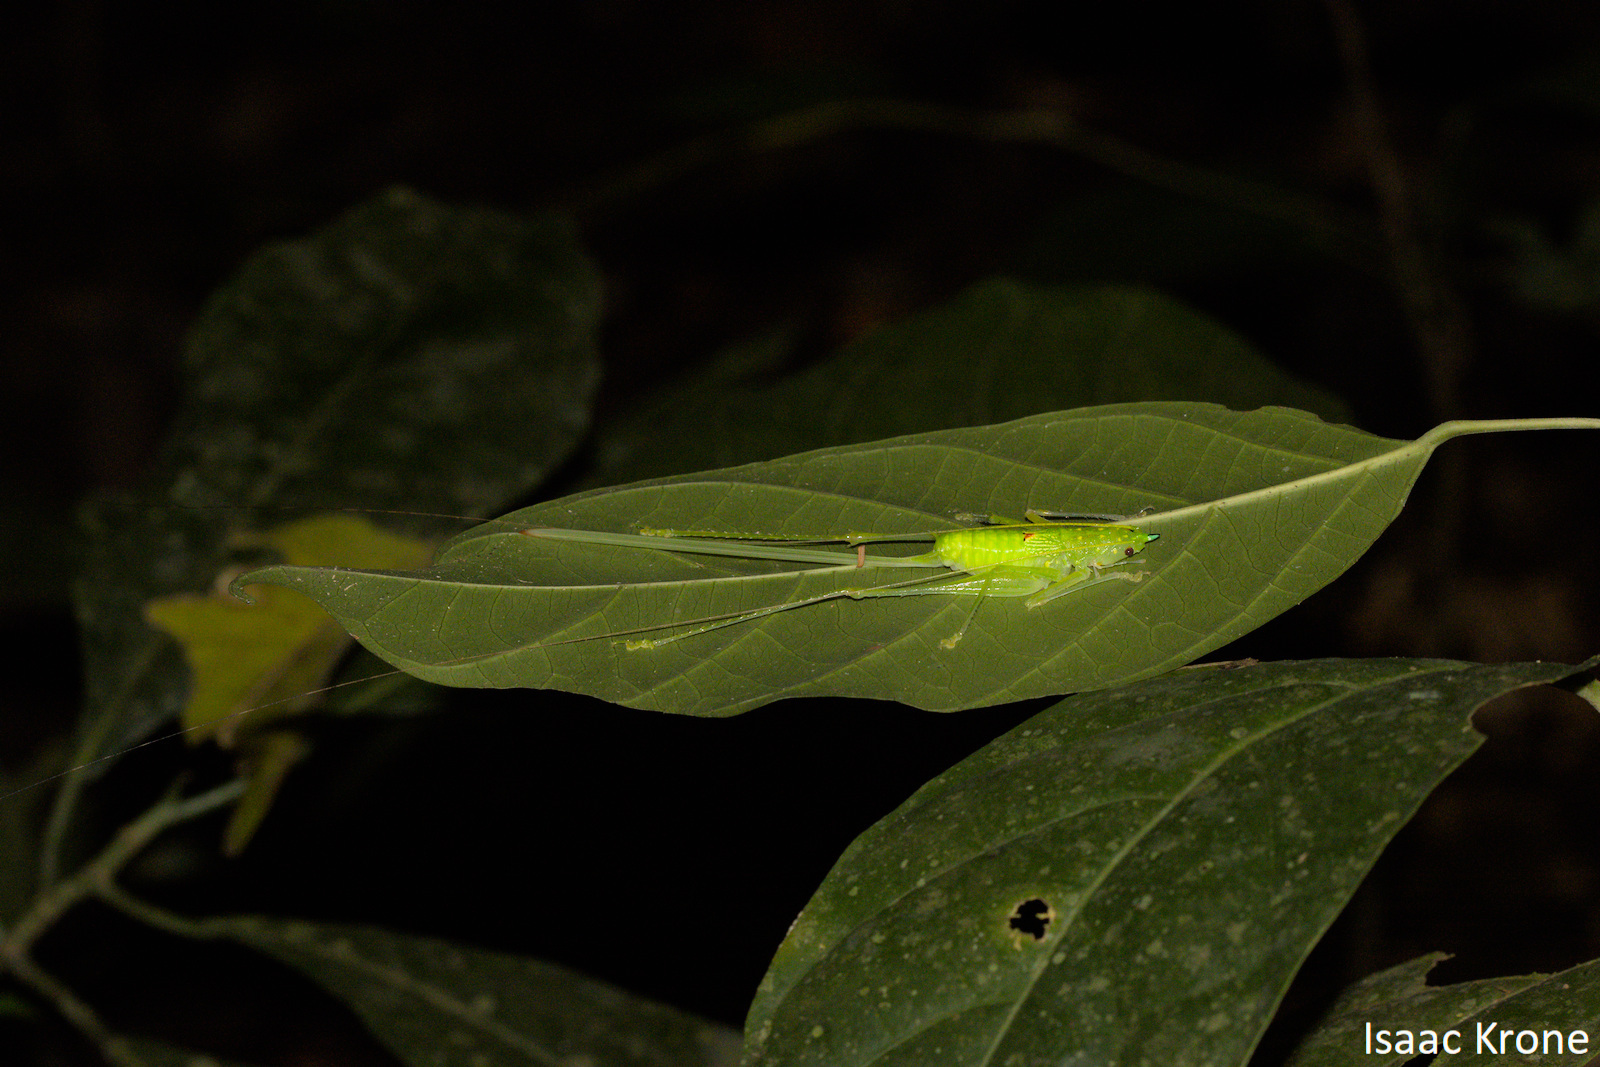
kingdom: Animalia
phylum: Arthropoda
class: Insecta
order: Orthoptera
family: Tettigoniidae
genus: Daedalellus
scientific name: Daedalellus nigrofastigium
